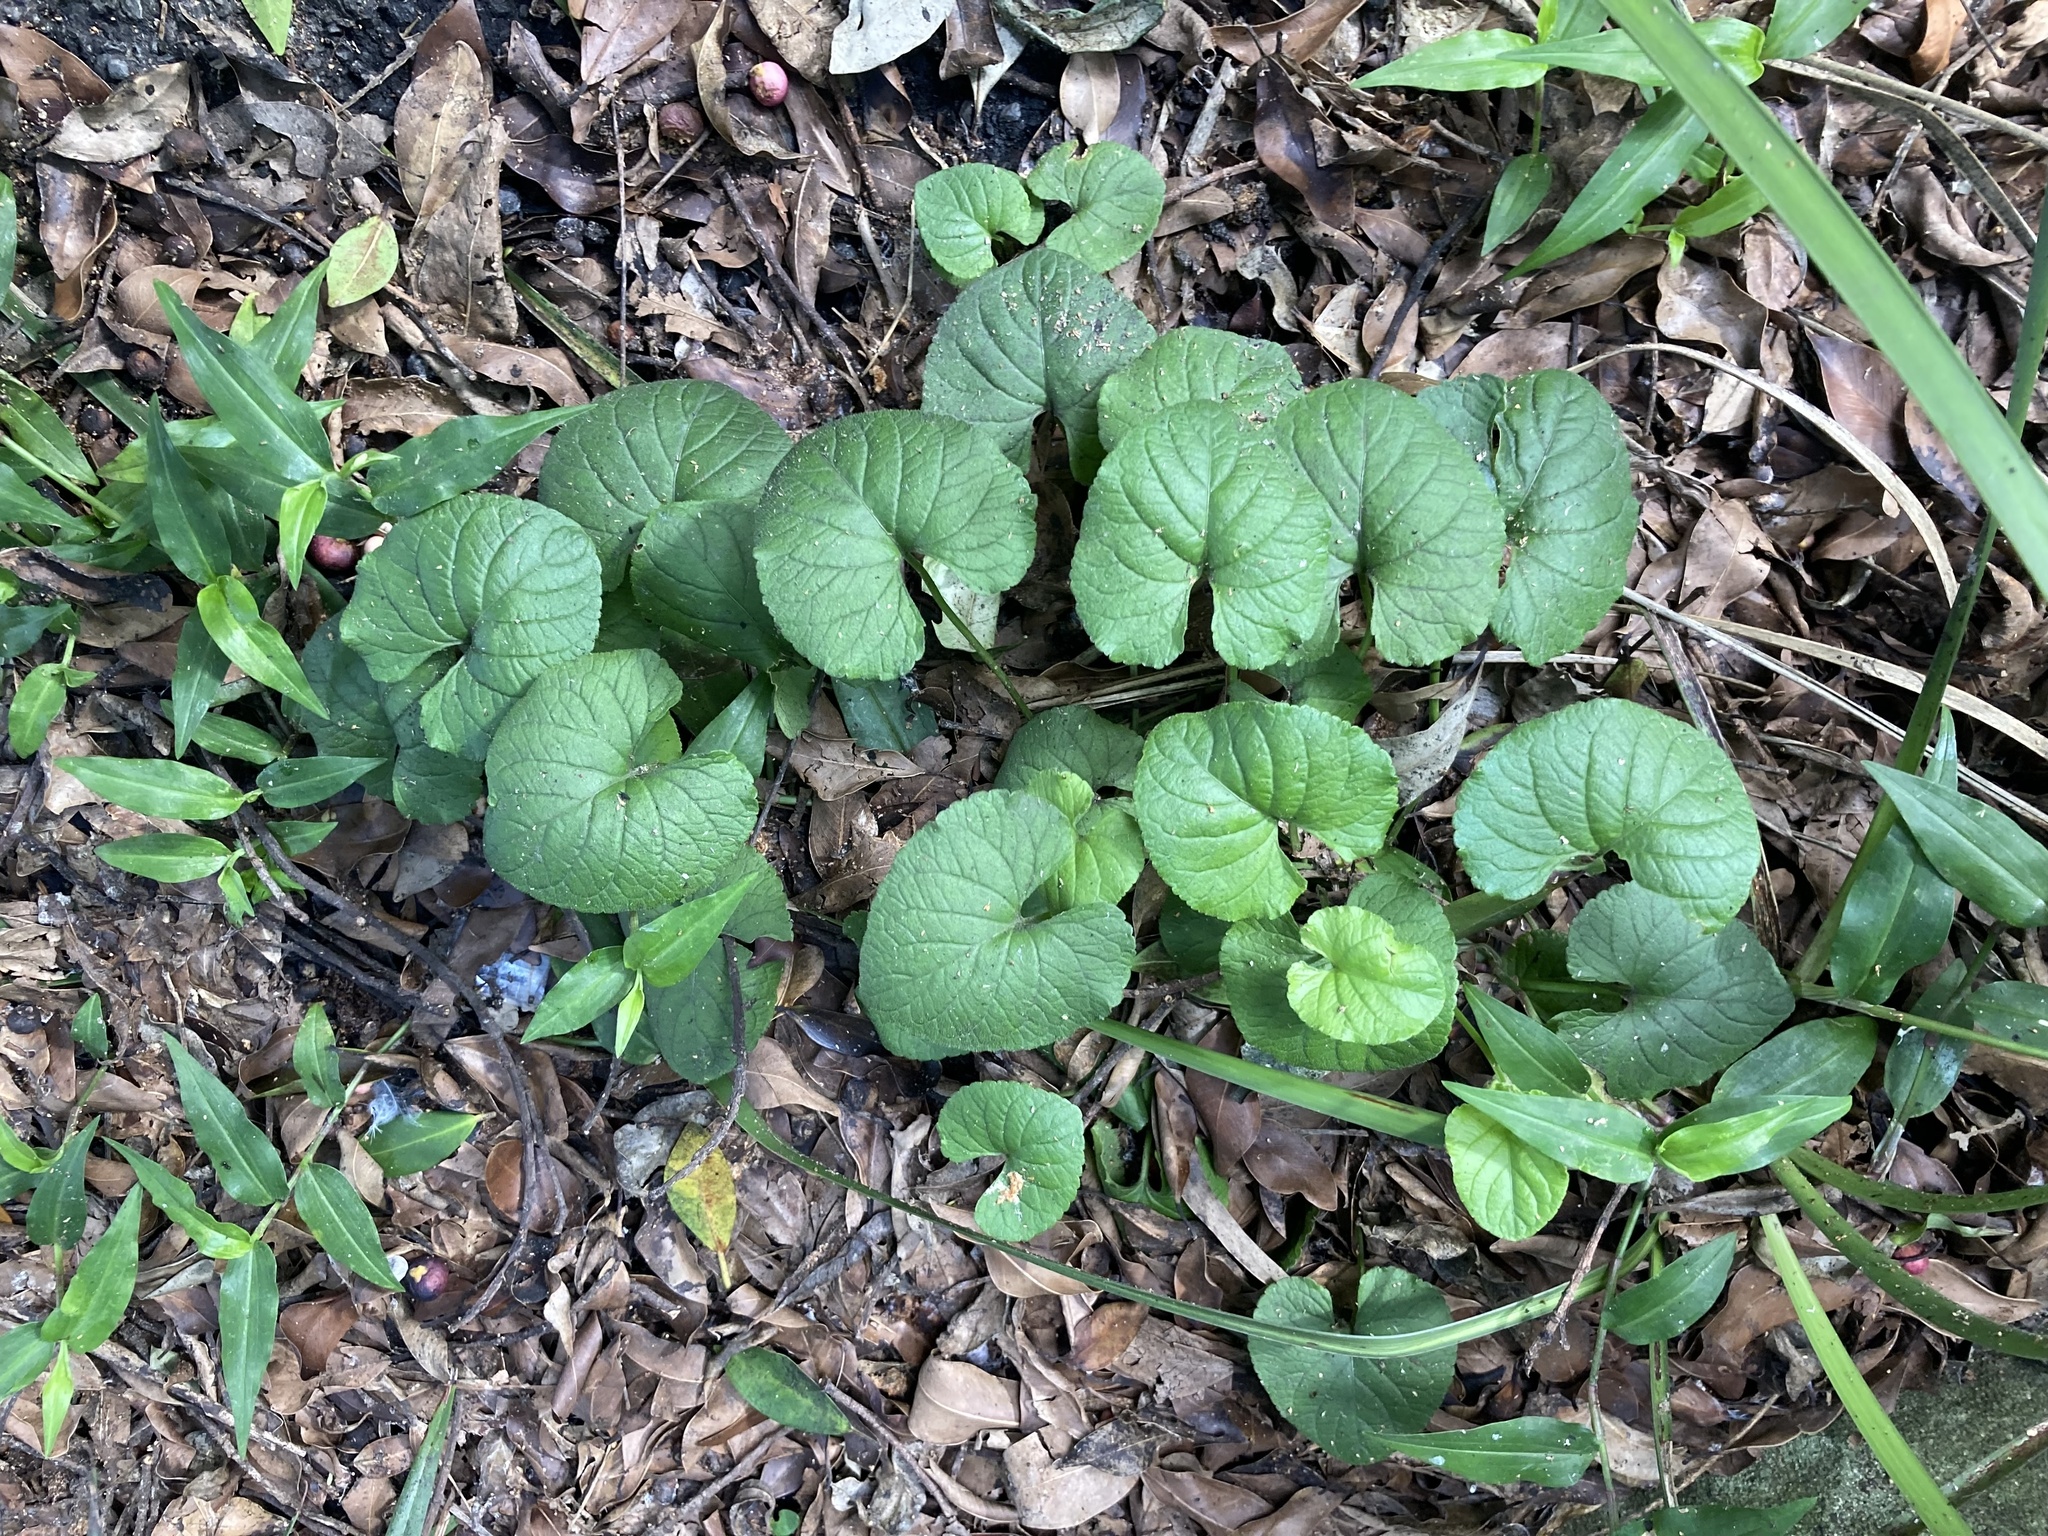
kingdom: Plantae
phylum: Tracheophyta
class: Magnoliopsida
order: Malpighiales
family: Violaceae
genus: Viola
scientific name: Viola odorata
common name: Sweet violet
